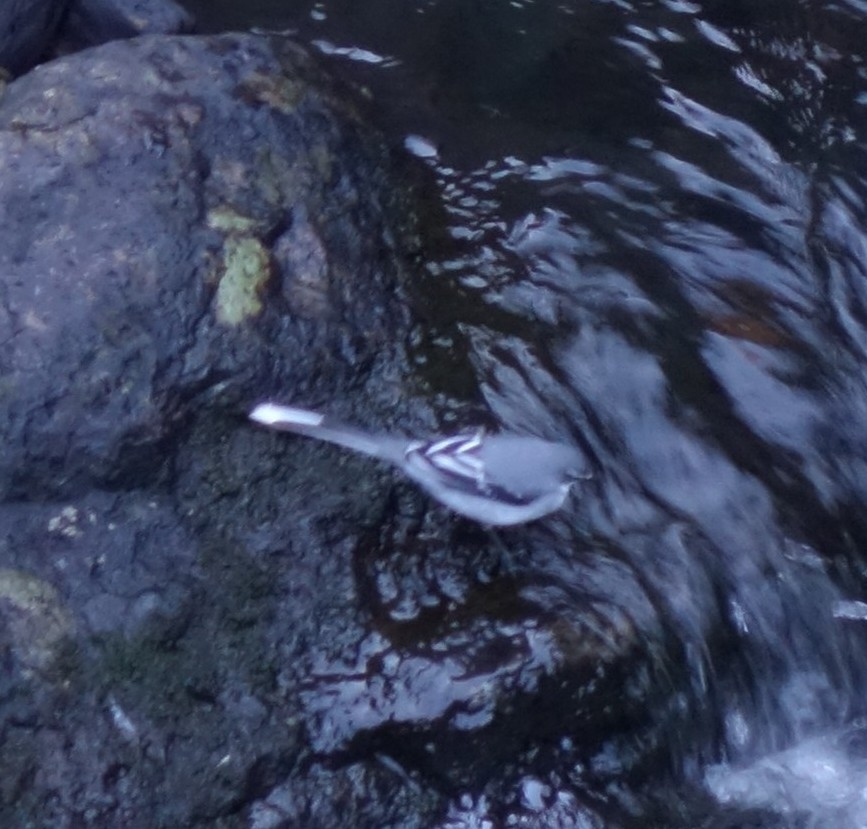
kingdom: Animalia
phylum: Chordata
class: Aves
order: Passeriformes
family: Motacillidae
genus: Motacilla
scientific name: Motacilla clara
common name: Mountain wagtail
